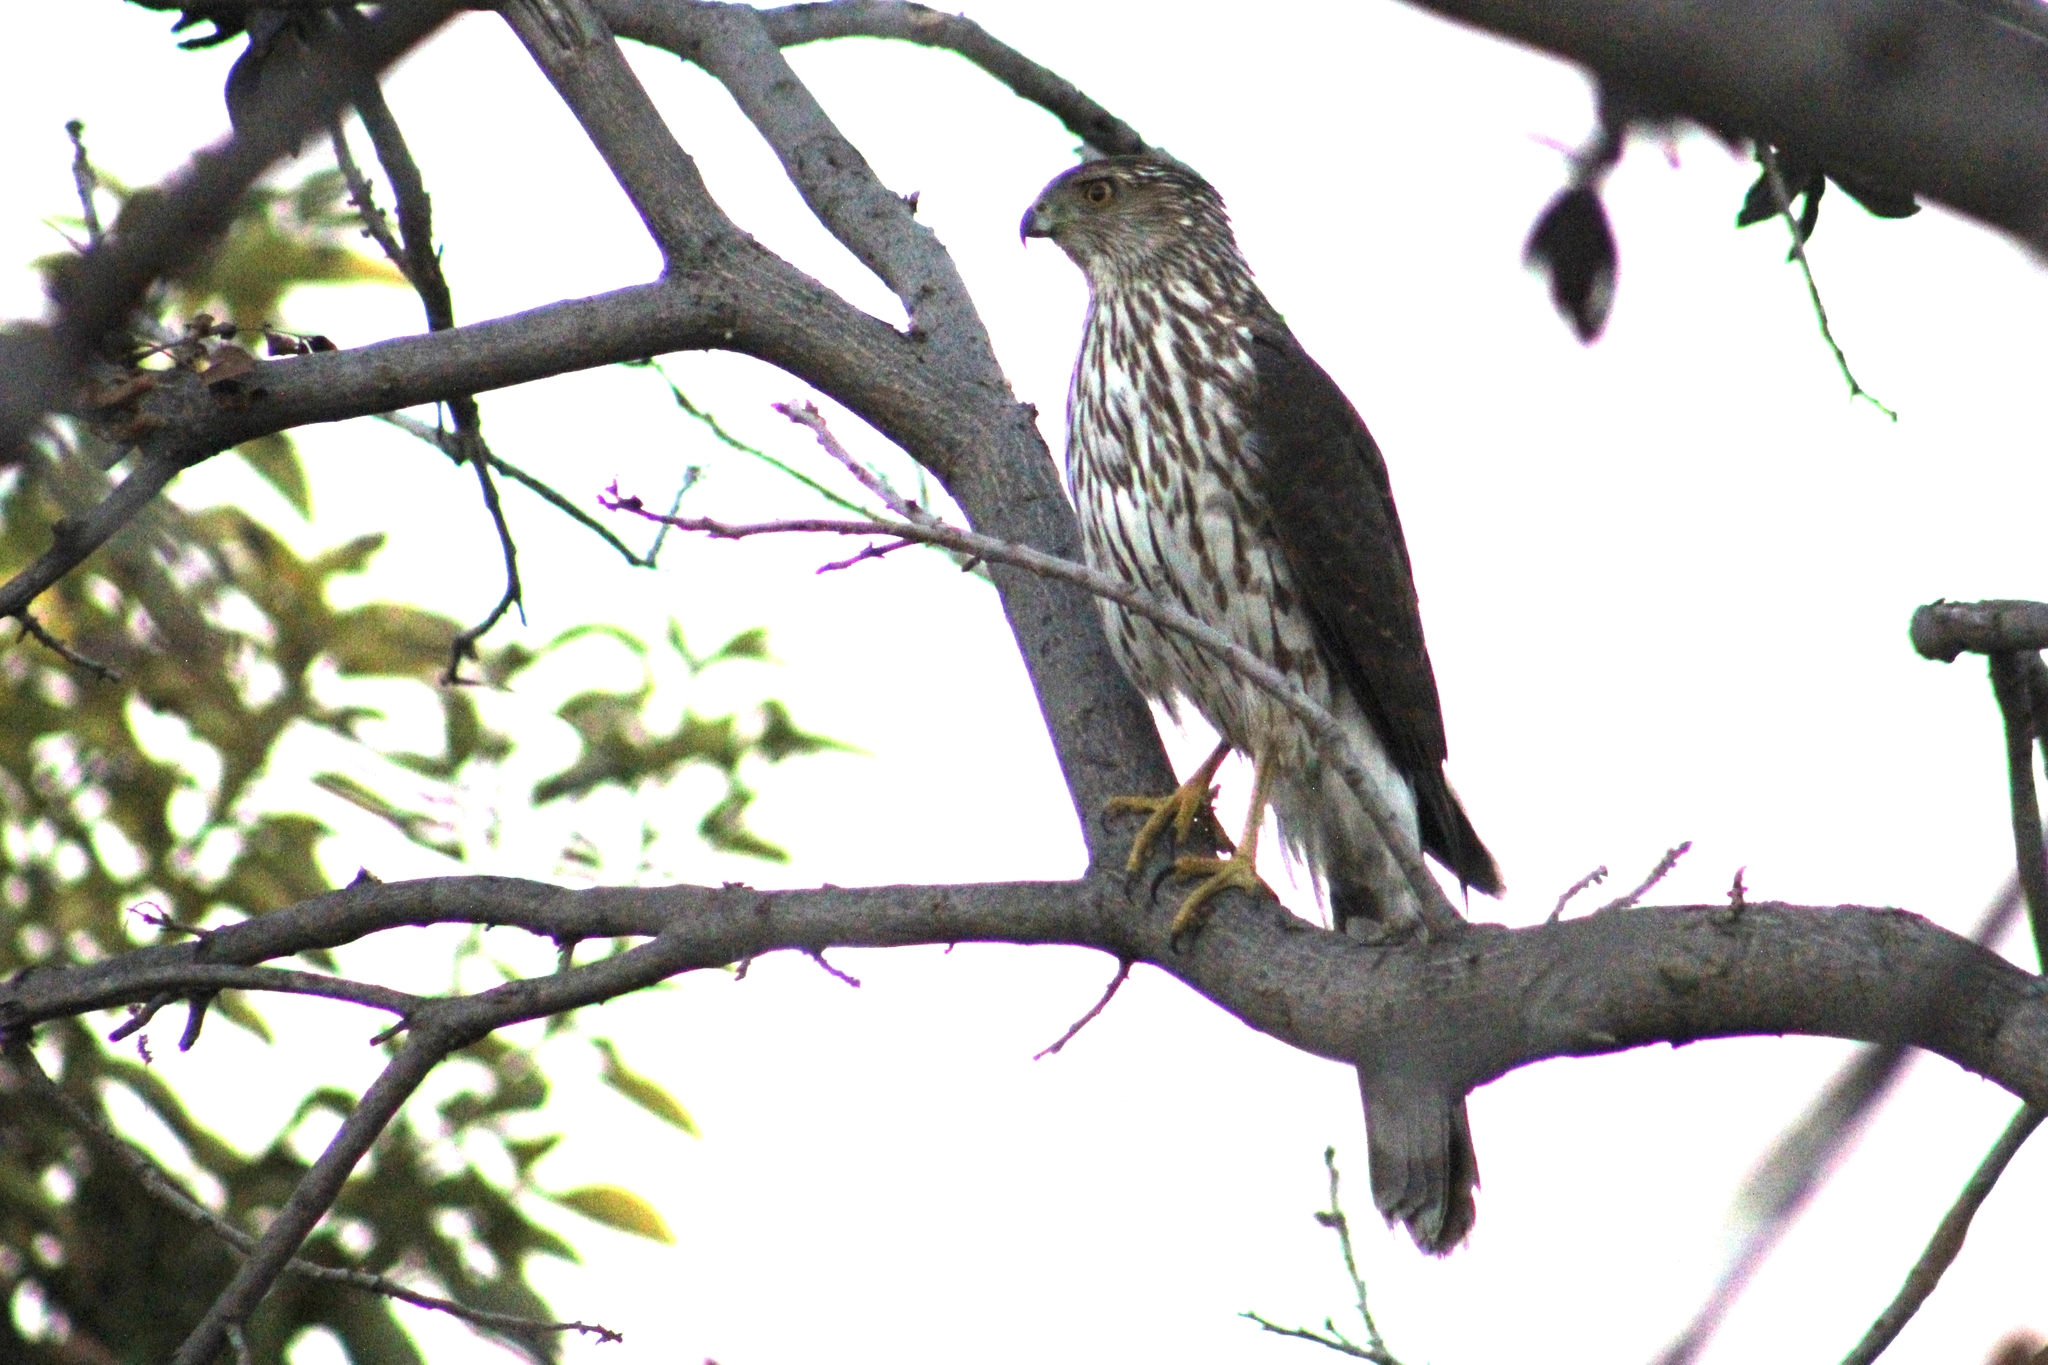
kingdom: Animalia
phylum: Chordata
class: Aves
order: Accipitriformes
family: Accipitridae
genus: Accipiter
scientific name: Accipiter cooperii
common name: Cooper's hawk
